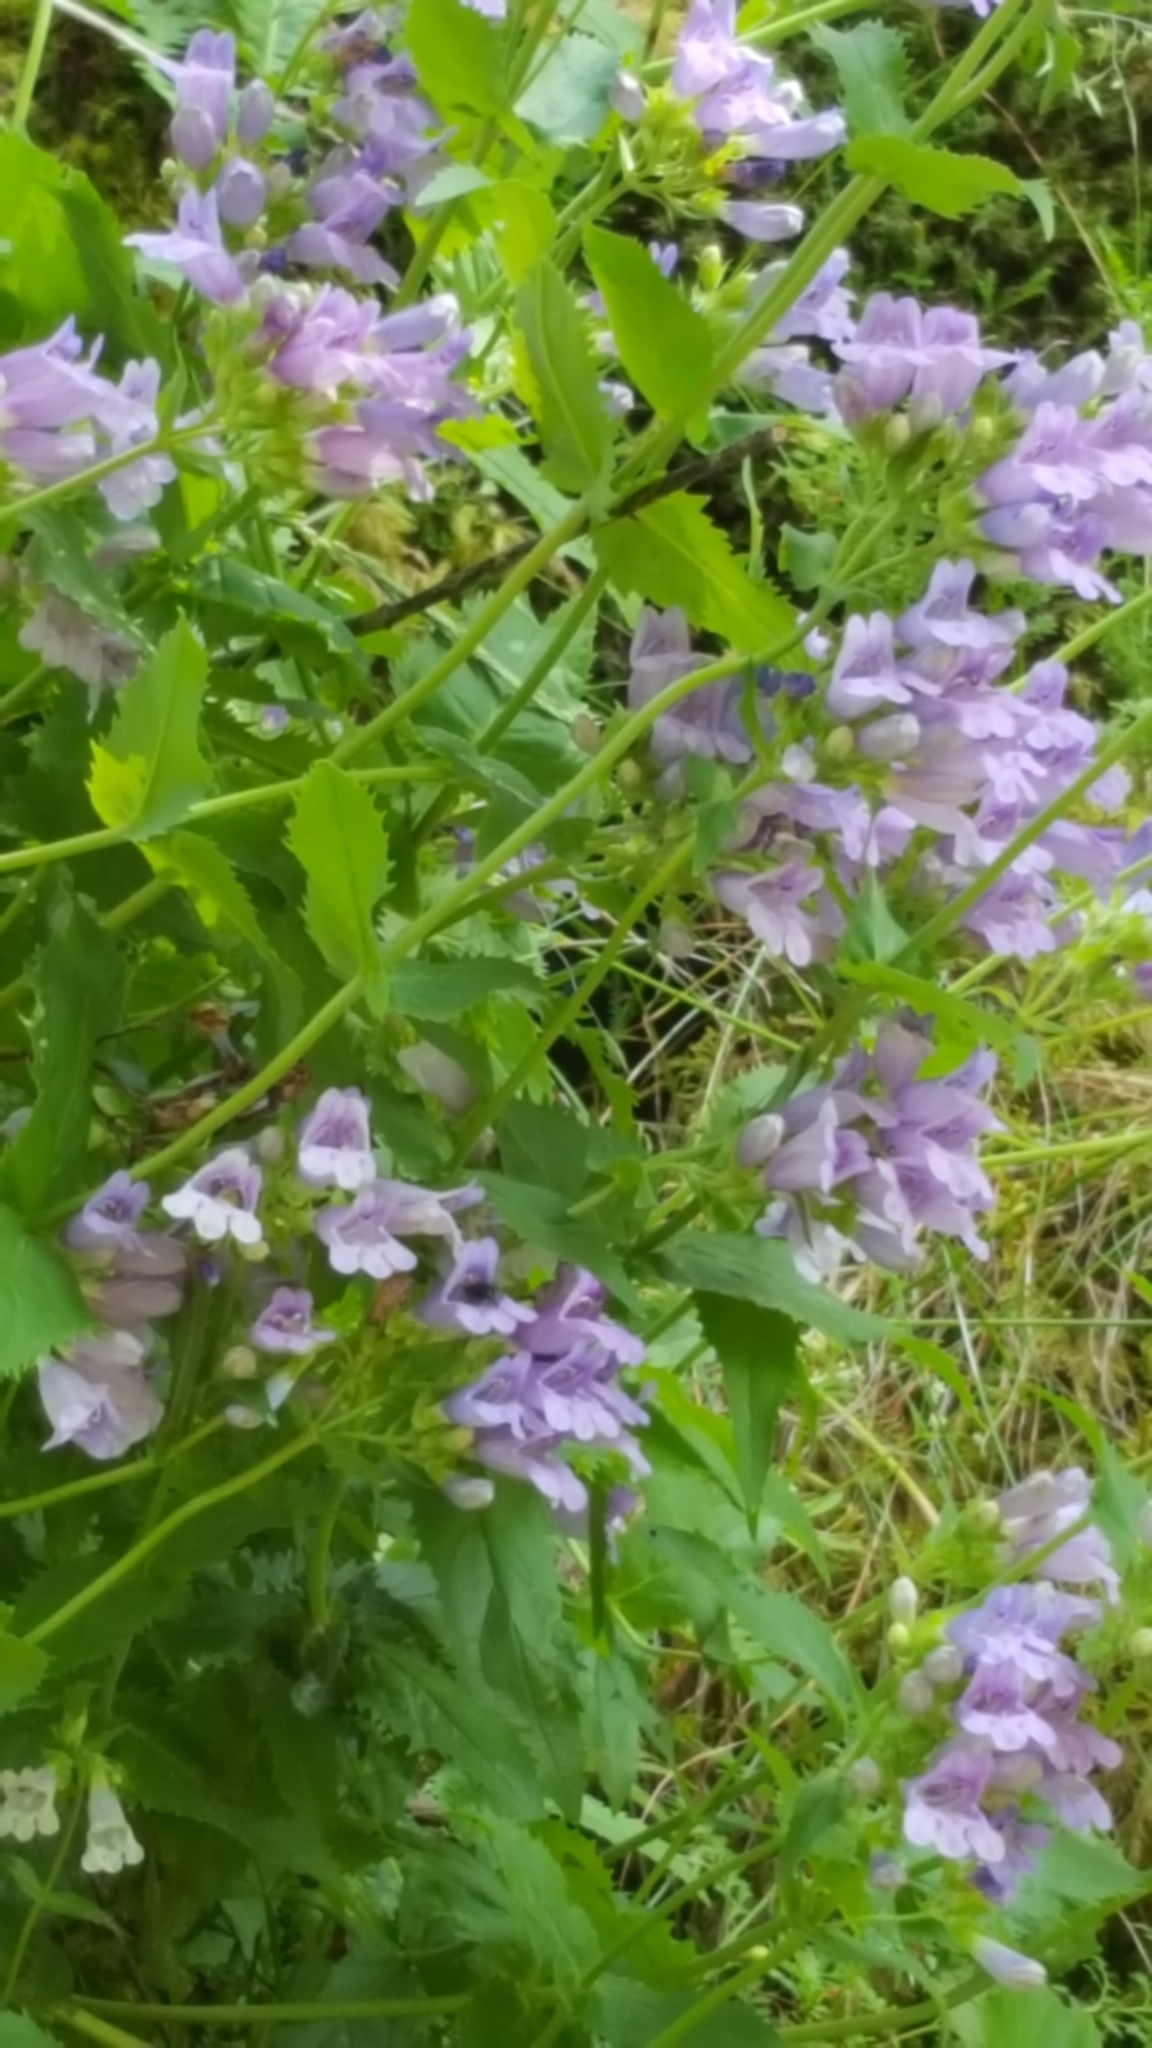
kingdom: Plantae
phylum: Tracheophyta
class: Magnoliopsida
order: Lamiales
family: Plantaginaceae
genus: Penstemon
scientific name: Penstemon serrulatus
